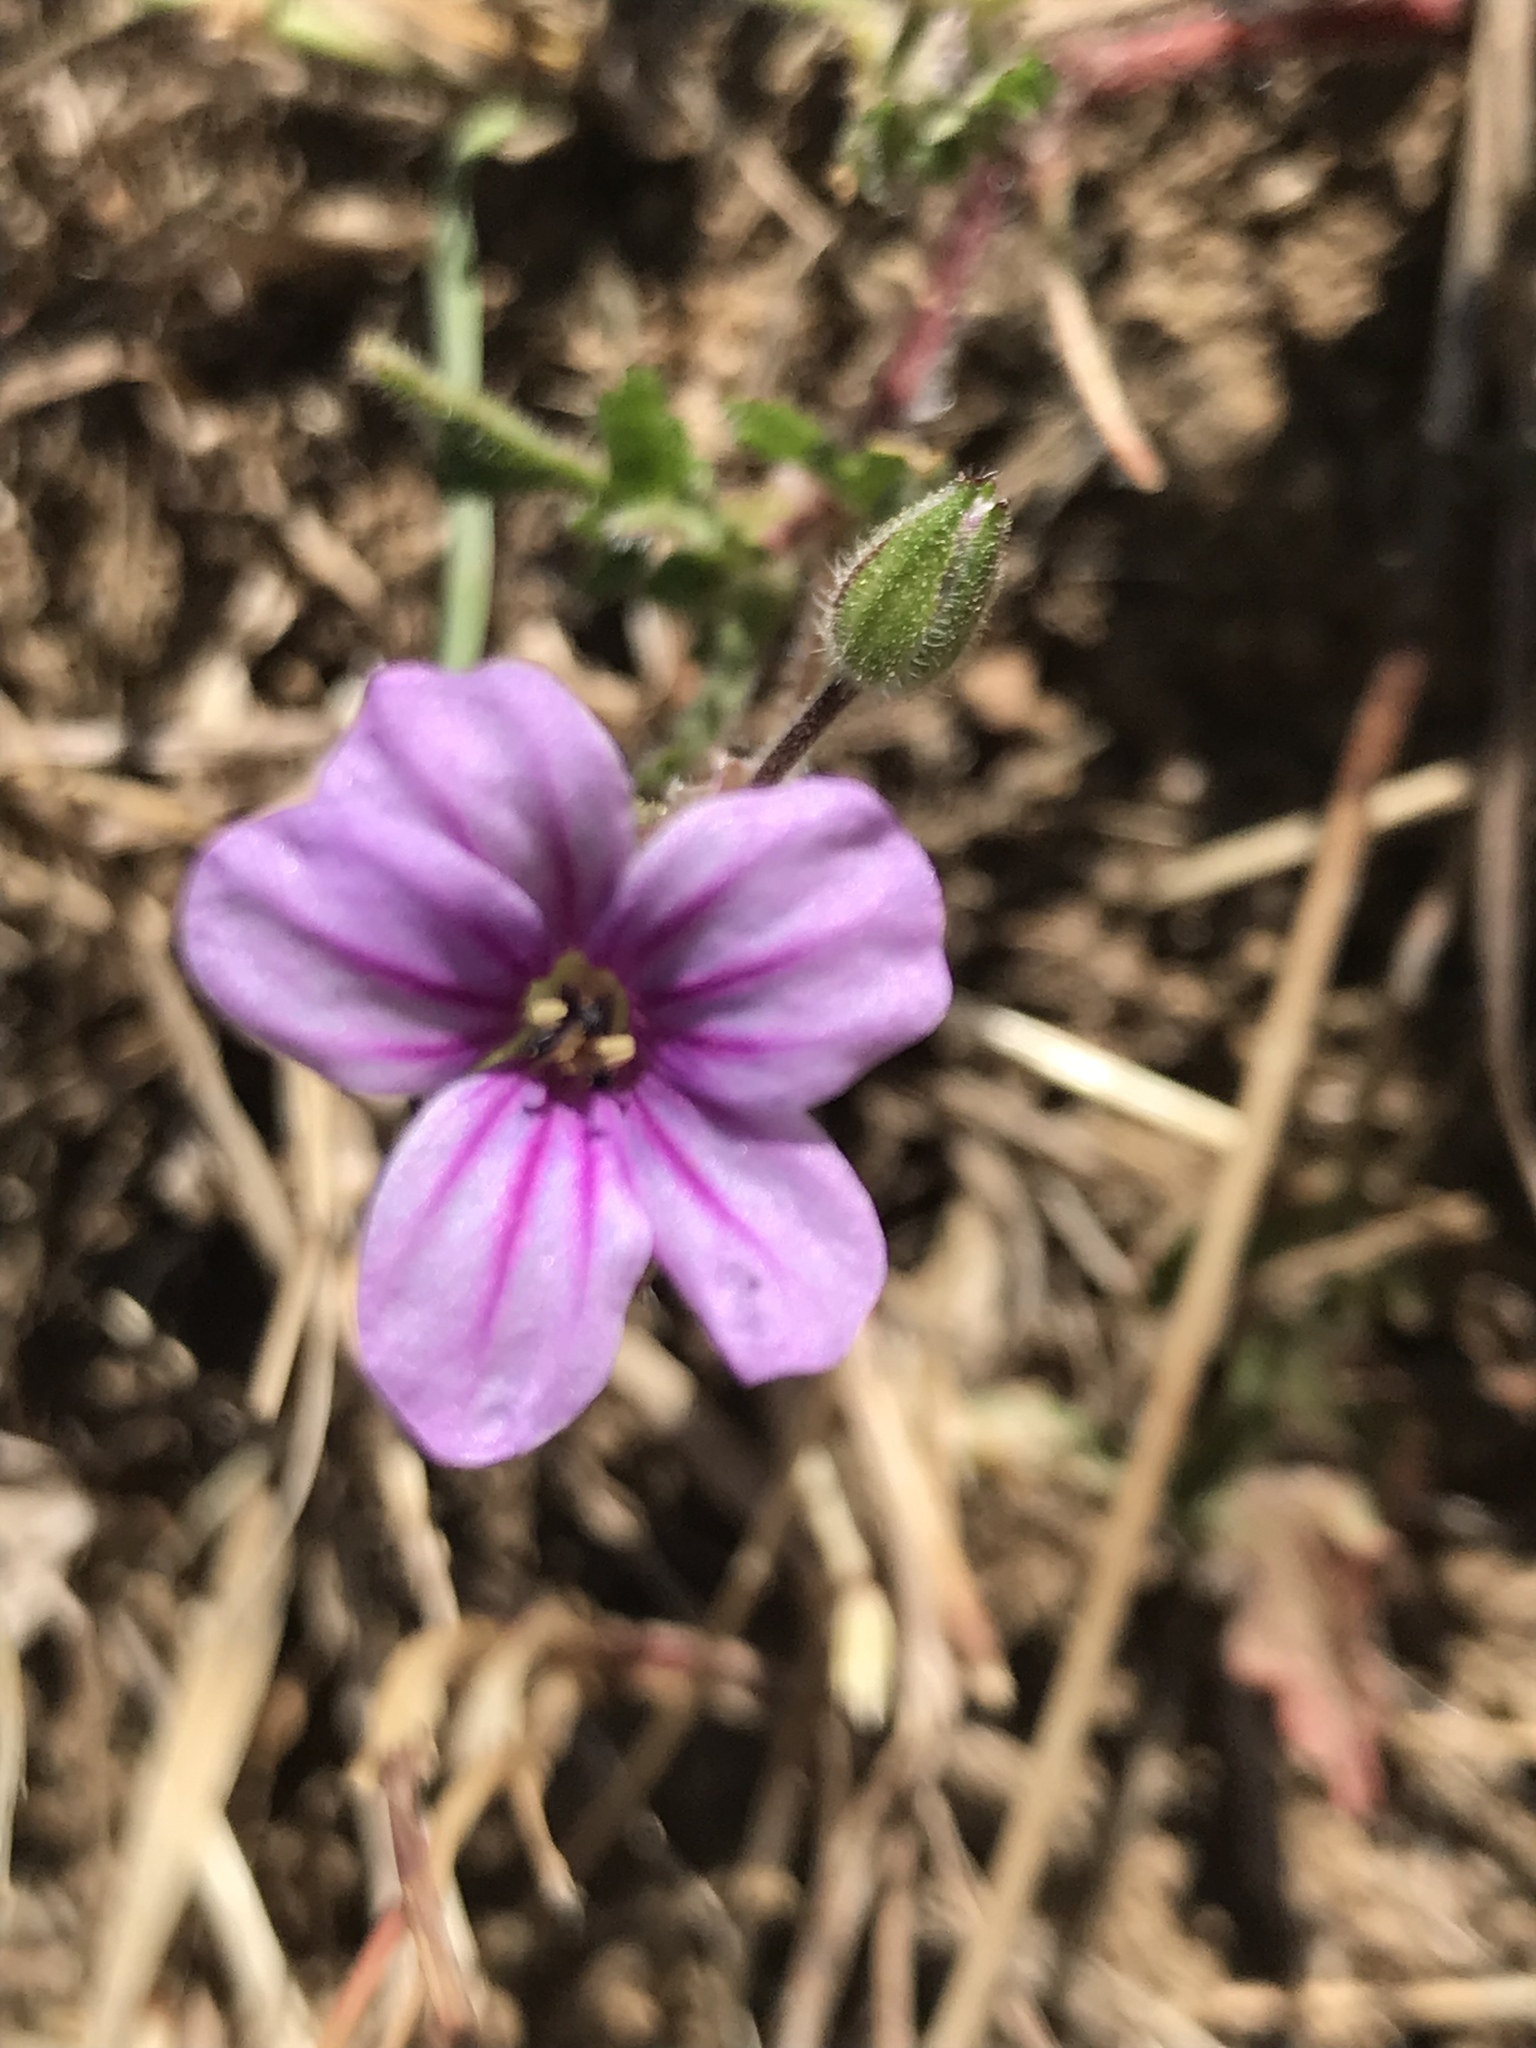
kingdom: Plantae
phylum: Tracheophyta
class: Magnoliopsida
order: Geraniales
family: Geraniaceae
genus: Erodium
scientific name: Erodium botrys
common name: Mediterranean stork's-bill
